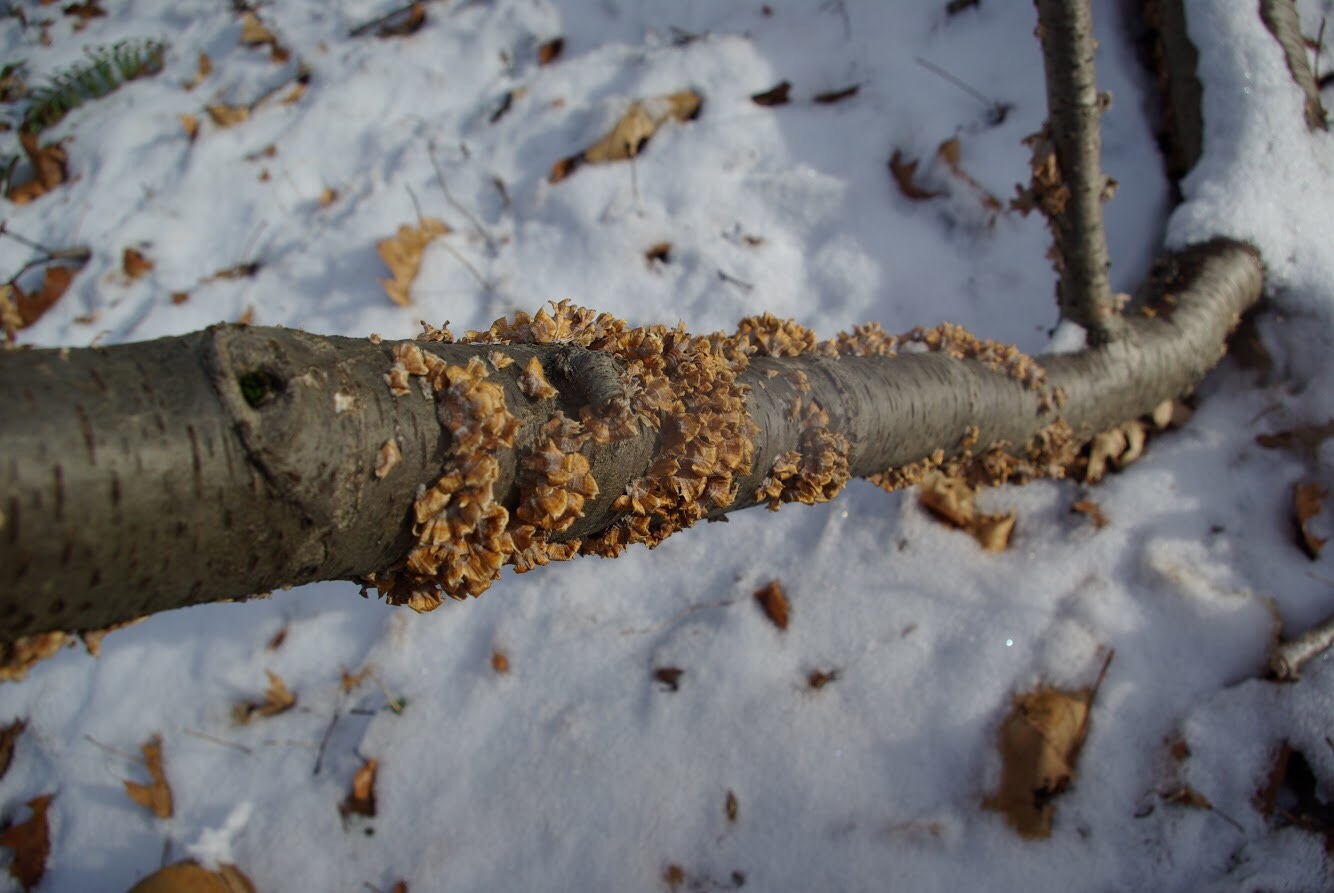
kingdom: Fungi
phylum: Basidiomycota
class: Agaricomycetes
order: Russulales
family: Stereaceae
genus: Stereum
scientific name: Stereum complicatum
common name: Crowded parchment
